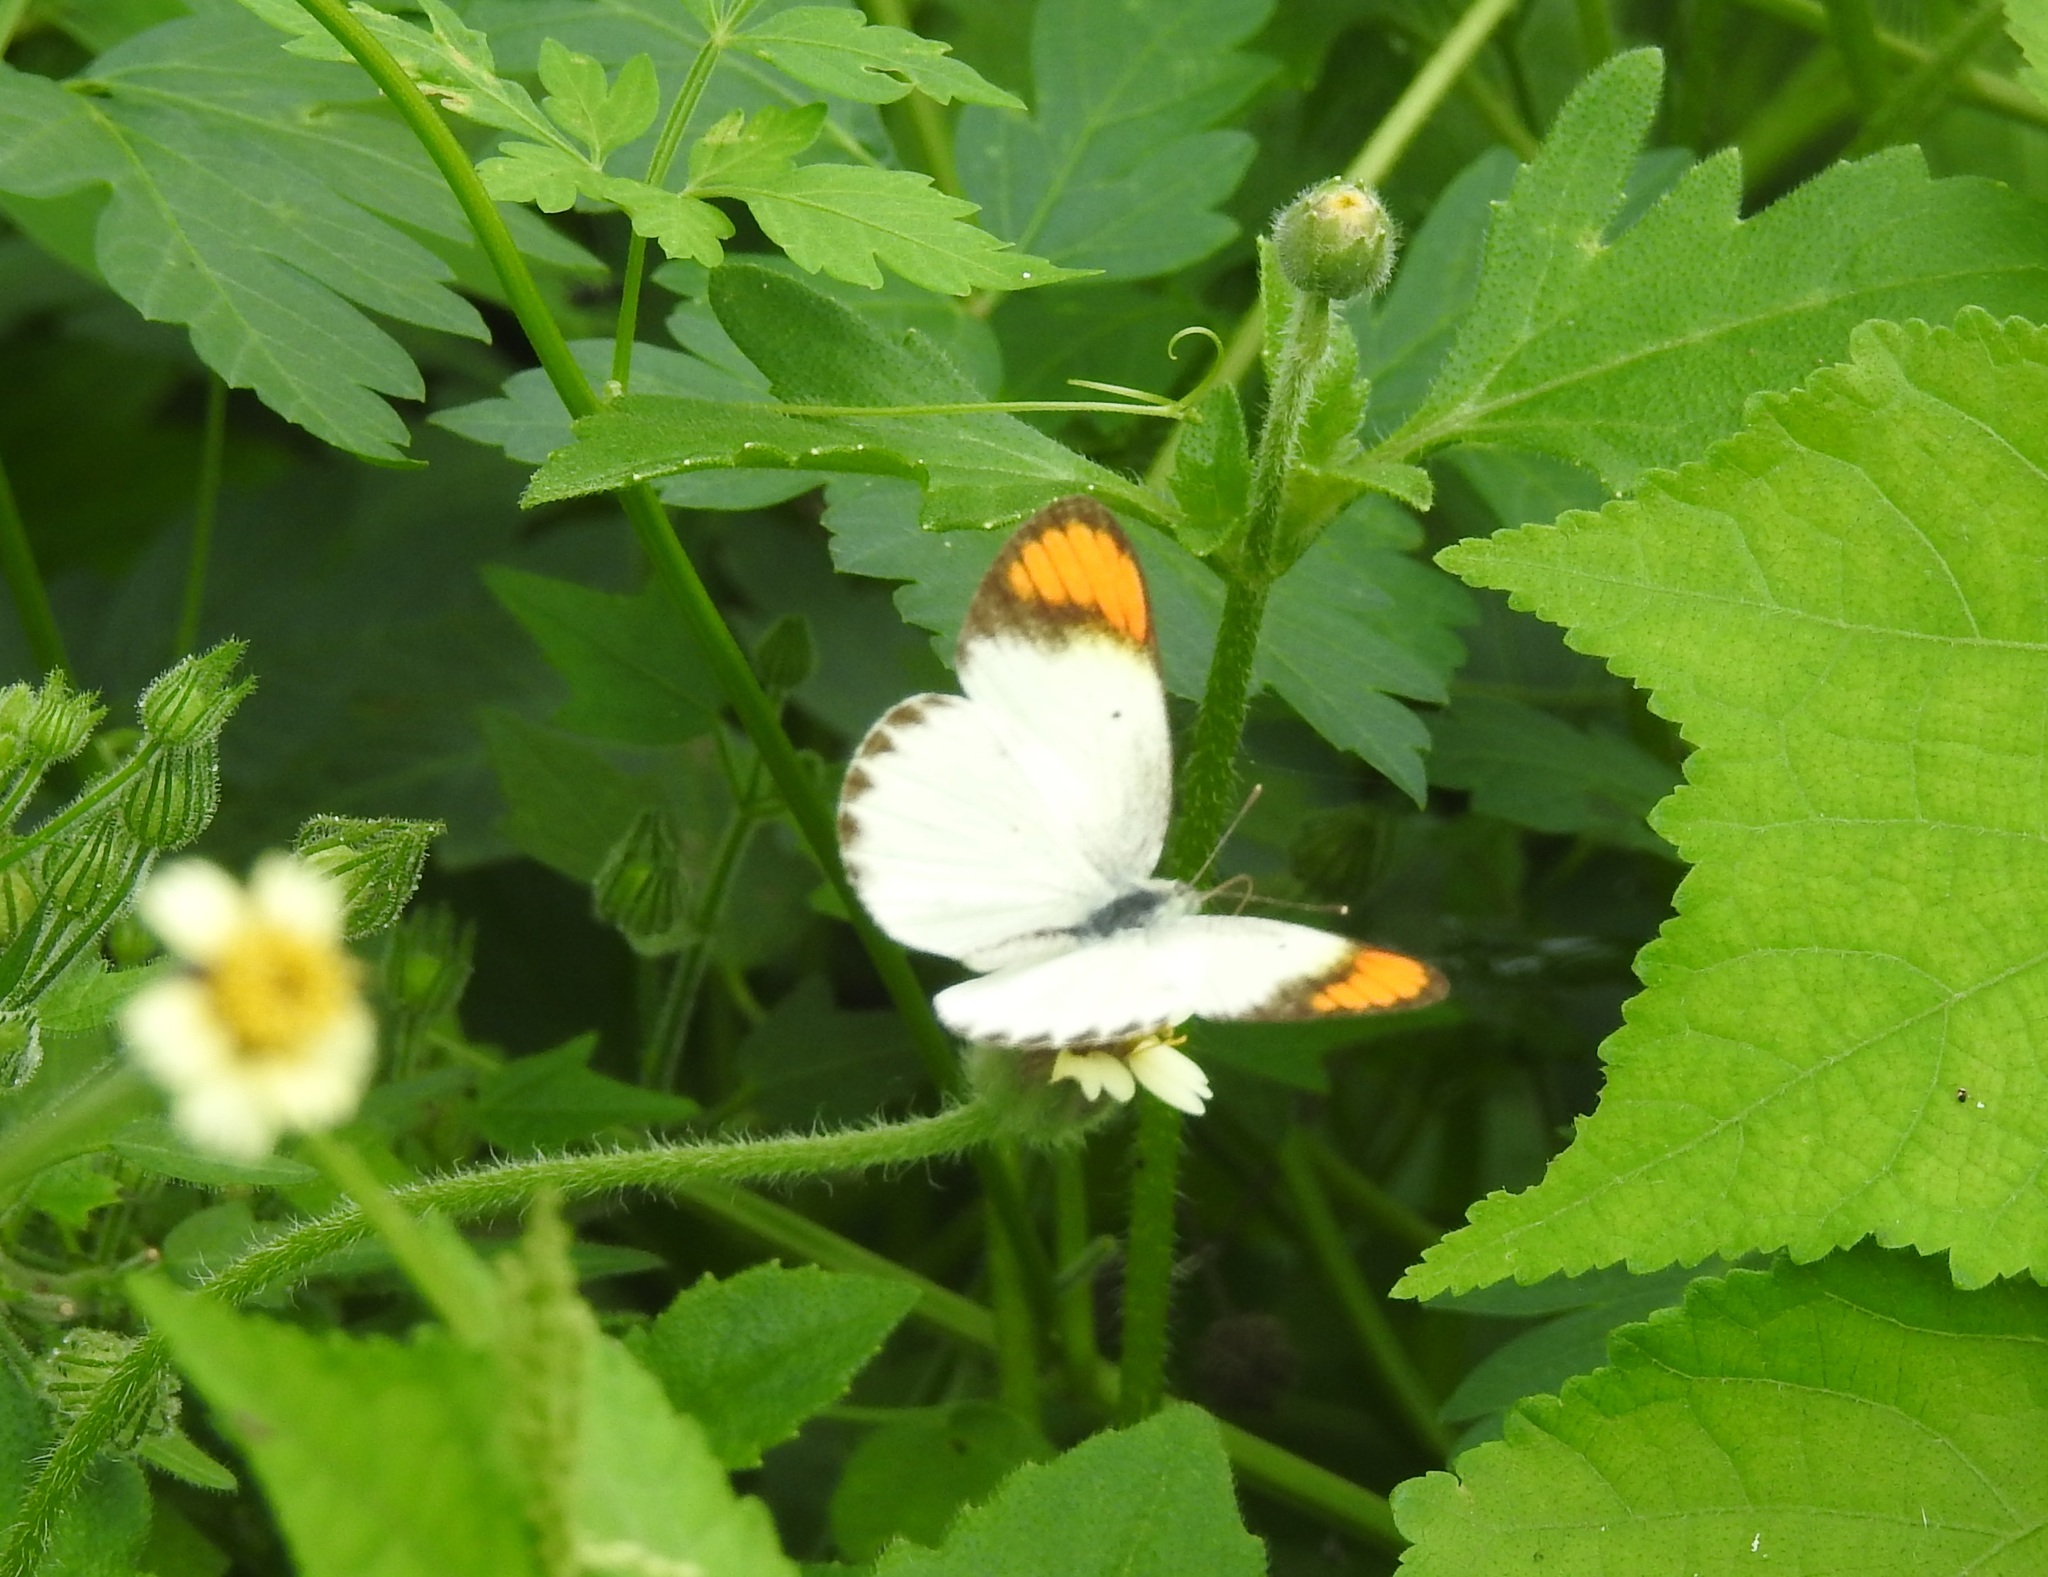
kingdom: Animalia
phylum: Arthropoda
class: Insecta
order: Lepidoptera
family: Pieridae
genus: Colotis
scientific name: Colotis etrida
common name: Little orange tip
